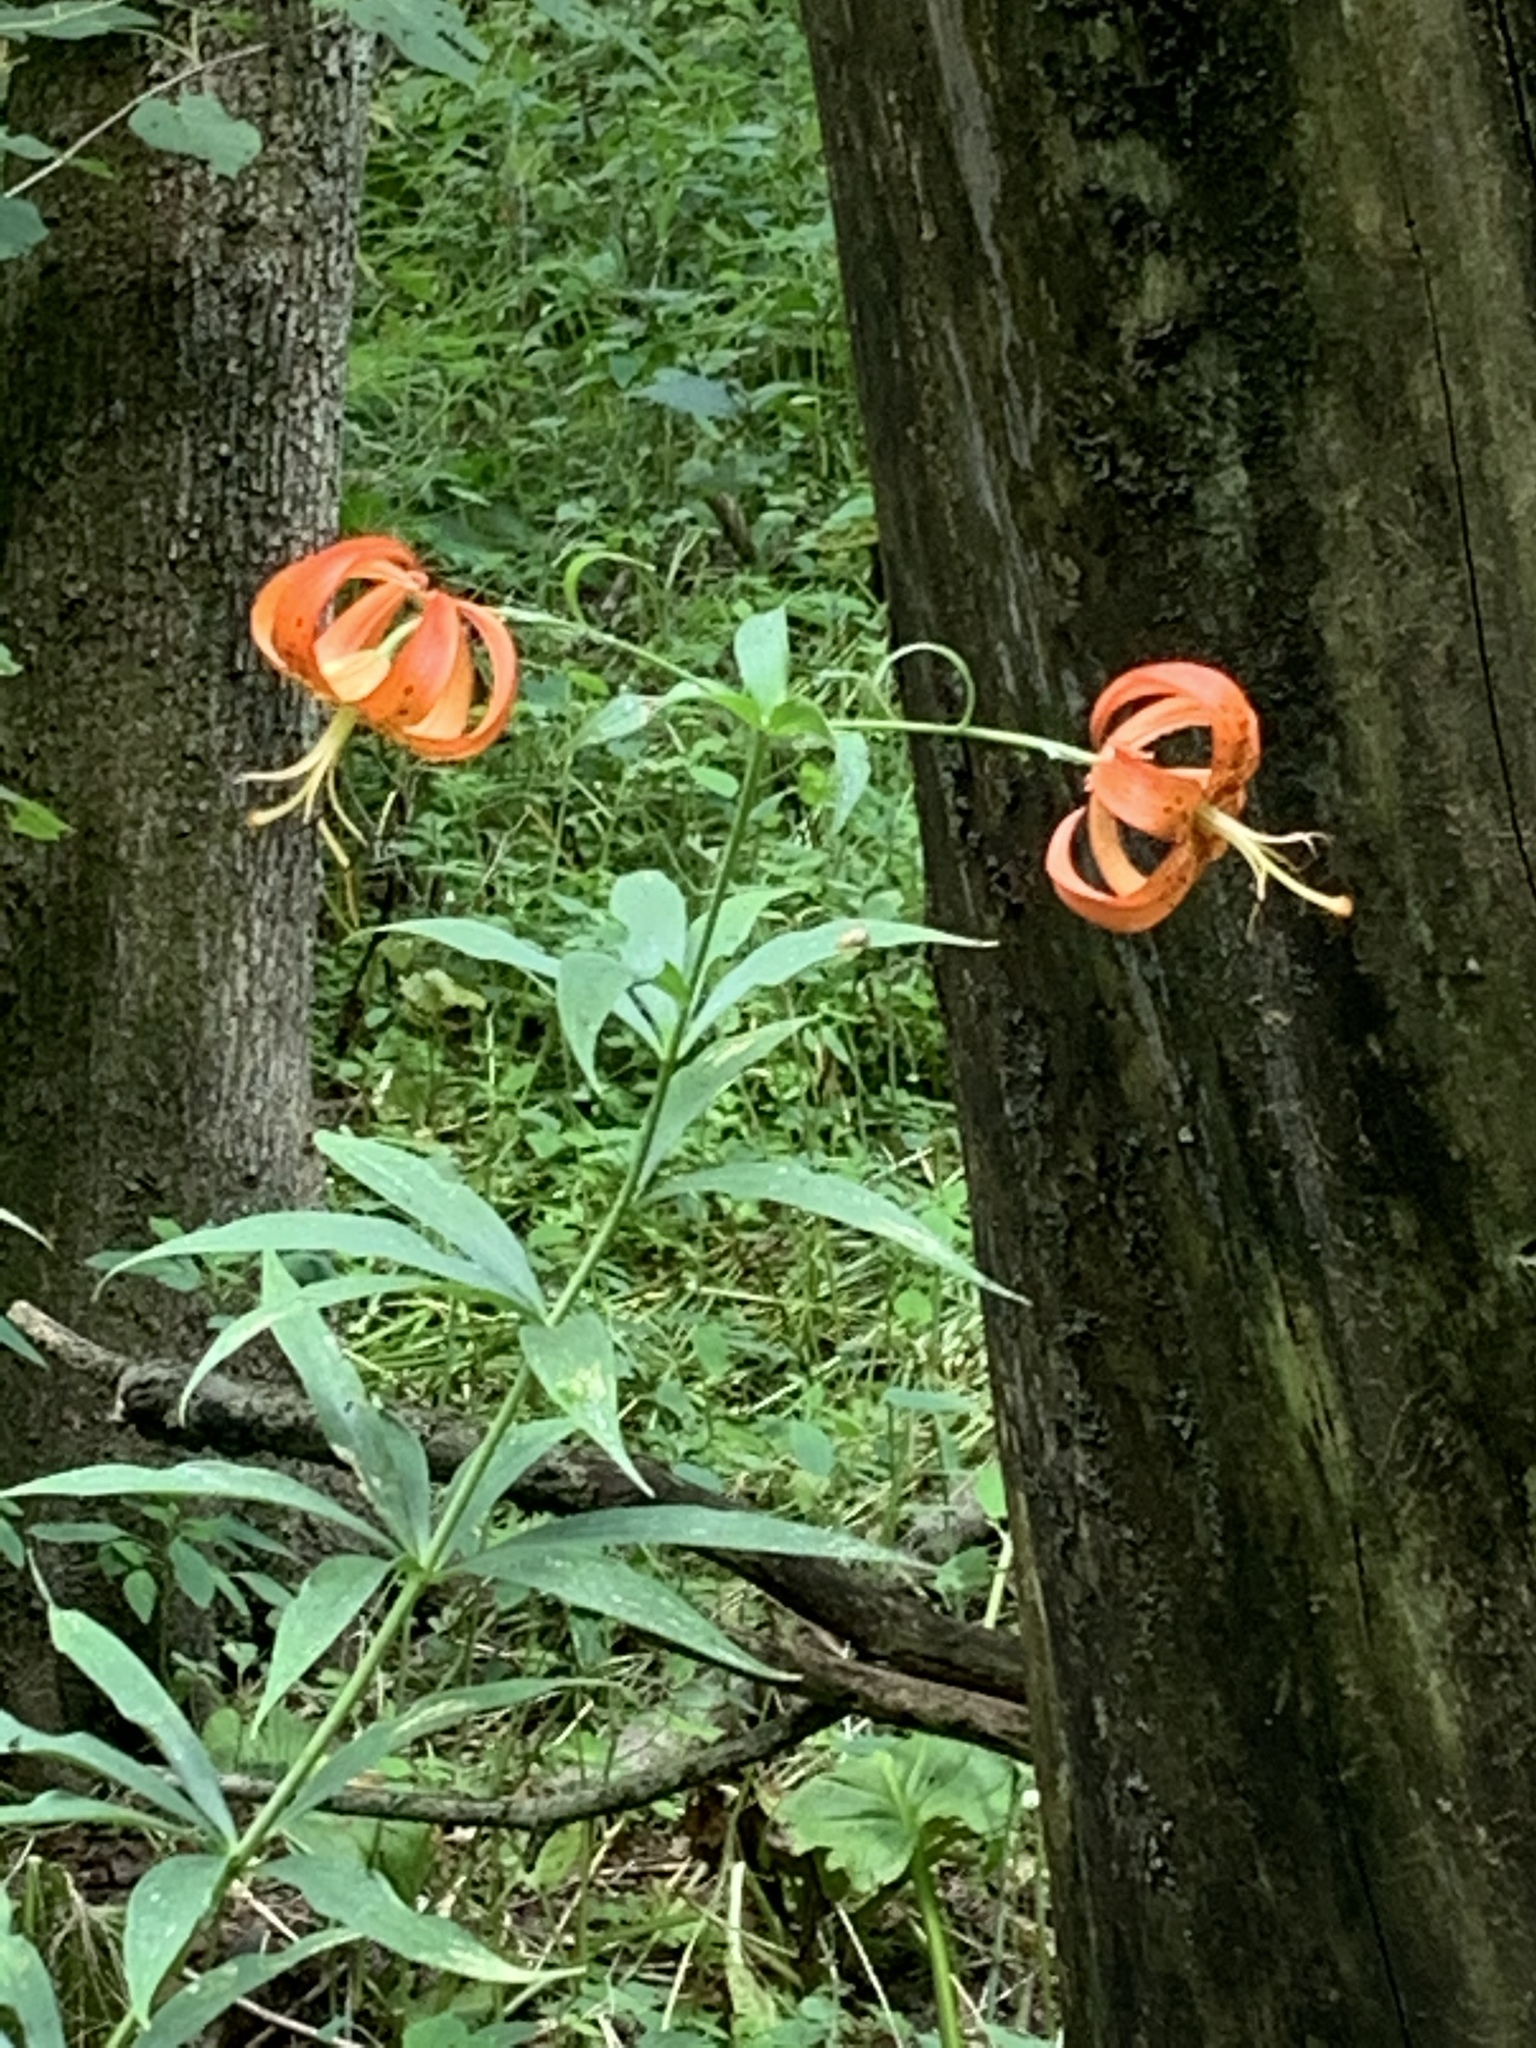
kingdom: Plantae
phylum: Tracheophyta
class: Liliopsida
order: Liliales
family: Liliaceae
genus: Lilium
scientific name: Lilium superbum
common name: American turk's-cap lily
